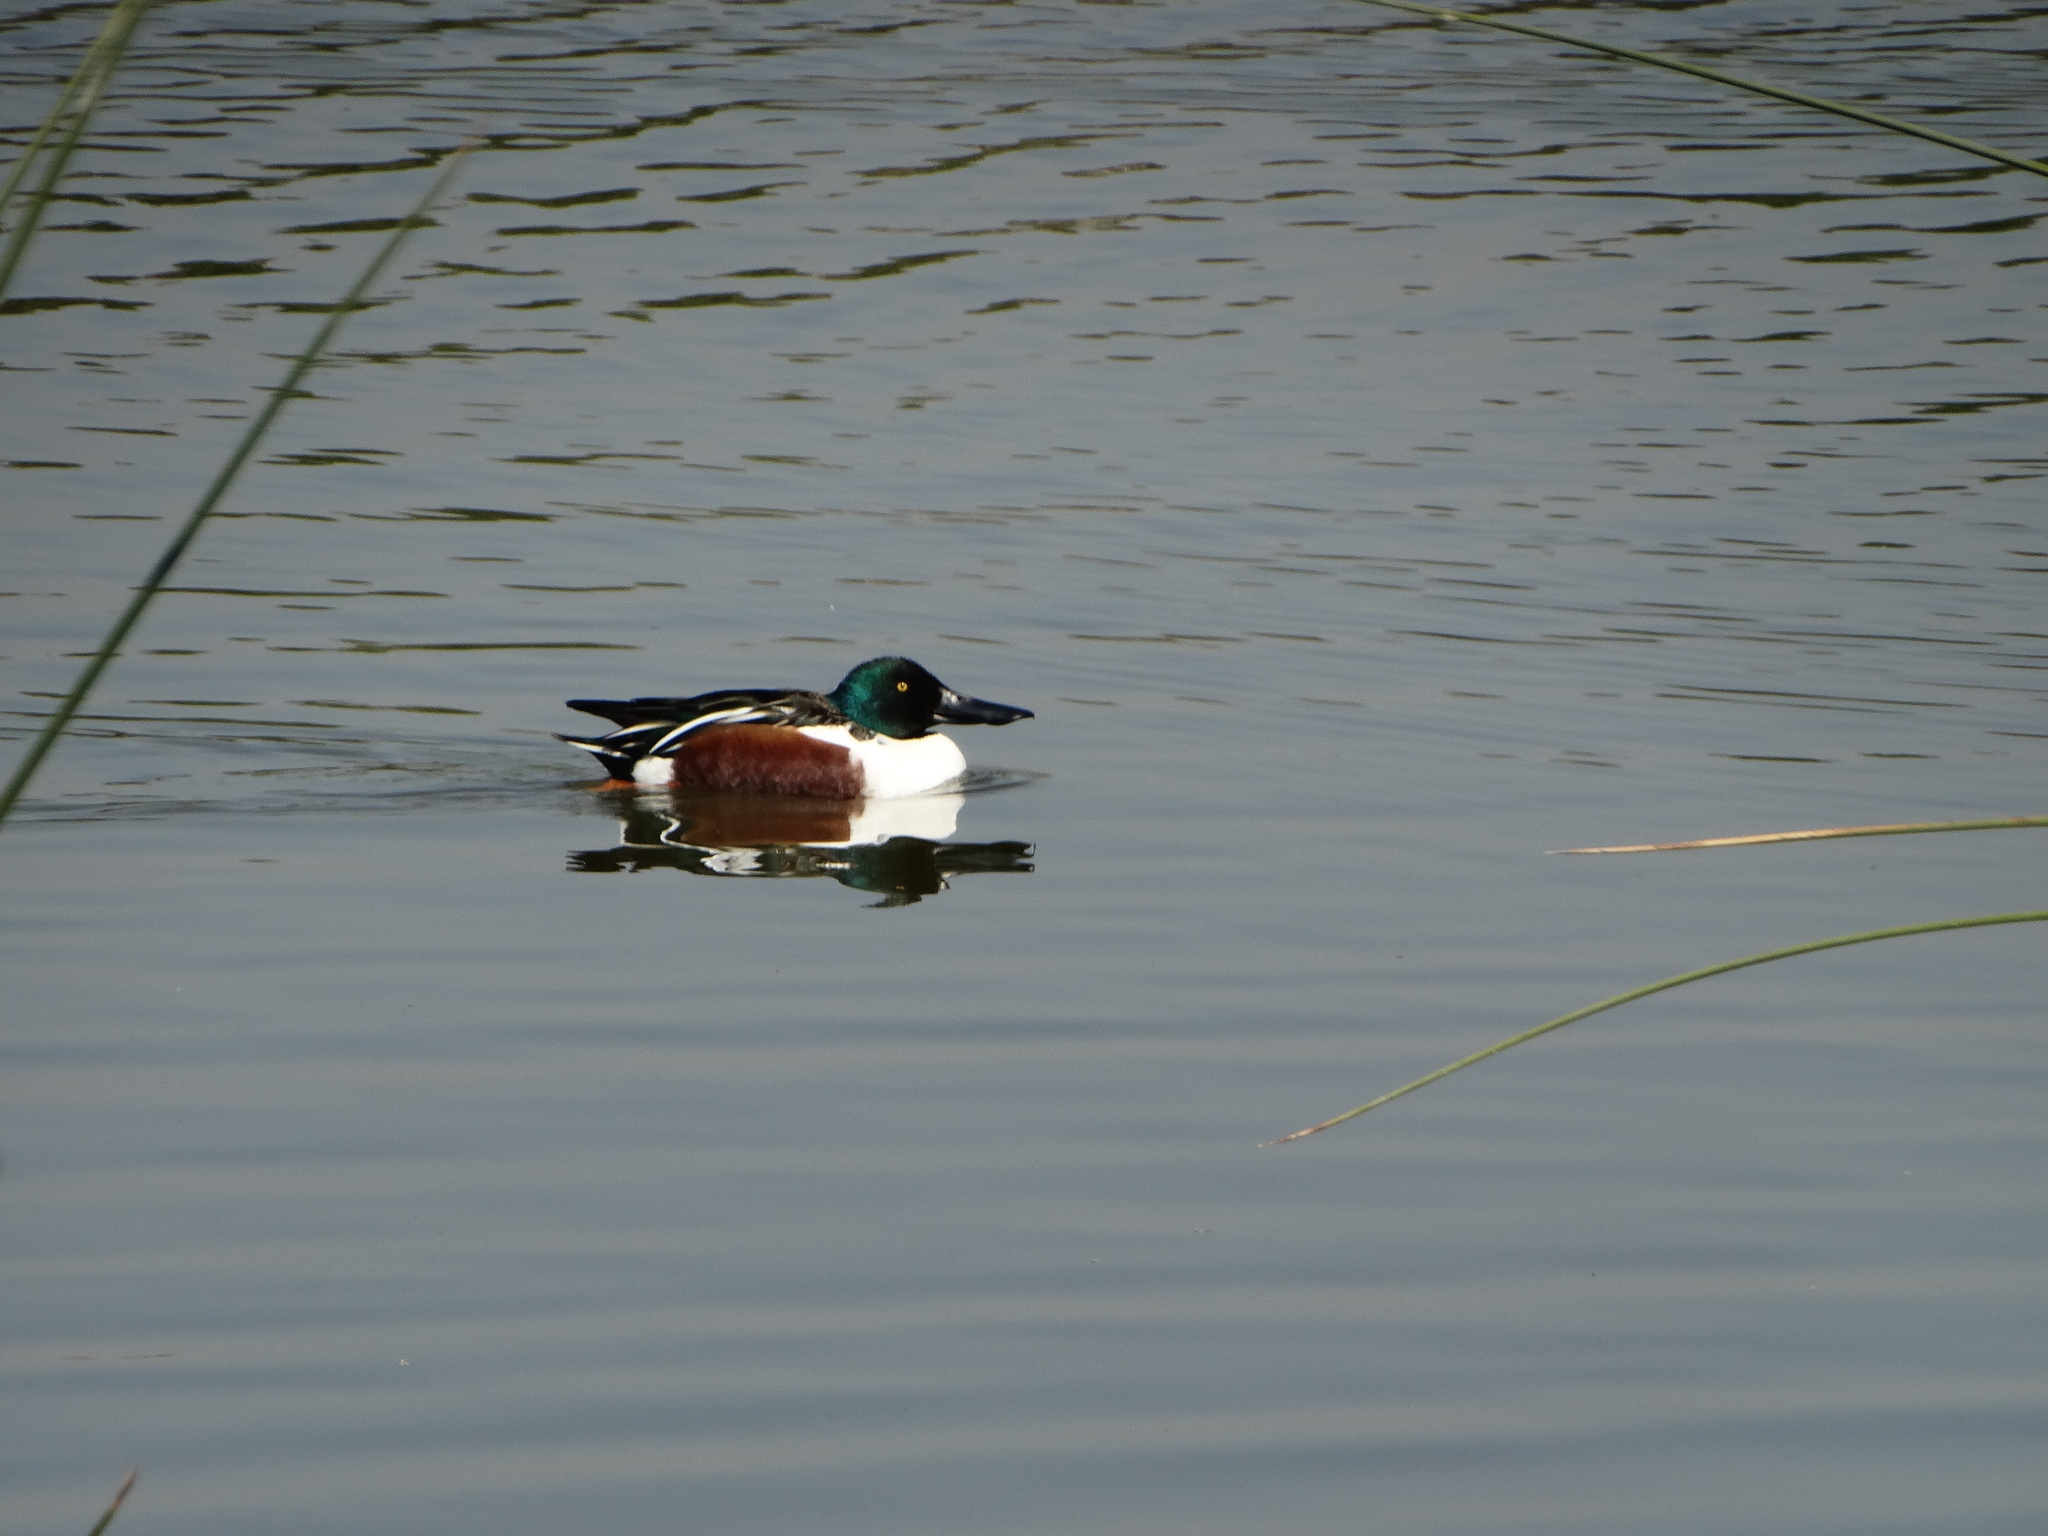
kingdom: Animalia
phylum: Chordata
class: Aves
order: Anseriformes
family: Anatidae
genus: Spatula
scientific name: Spatula clypeata
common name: Northern shoveler
